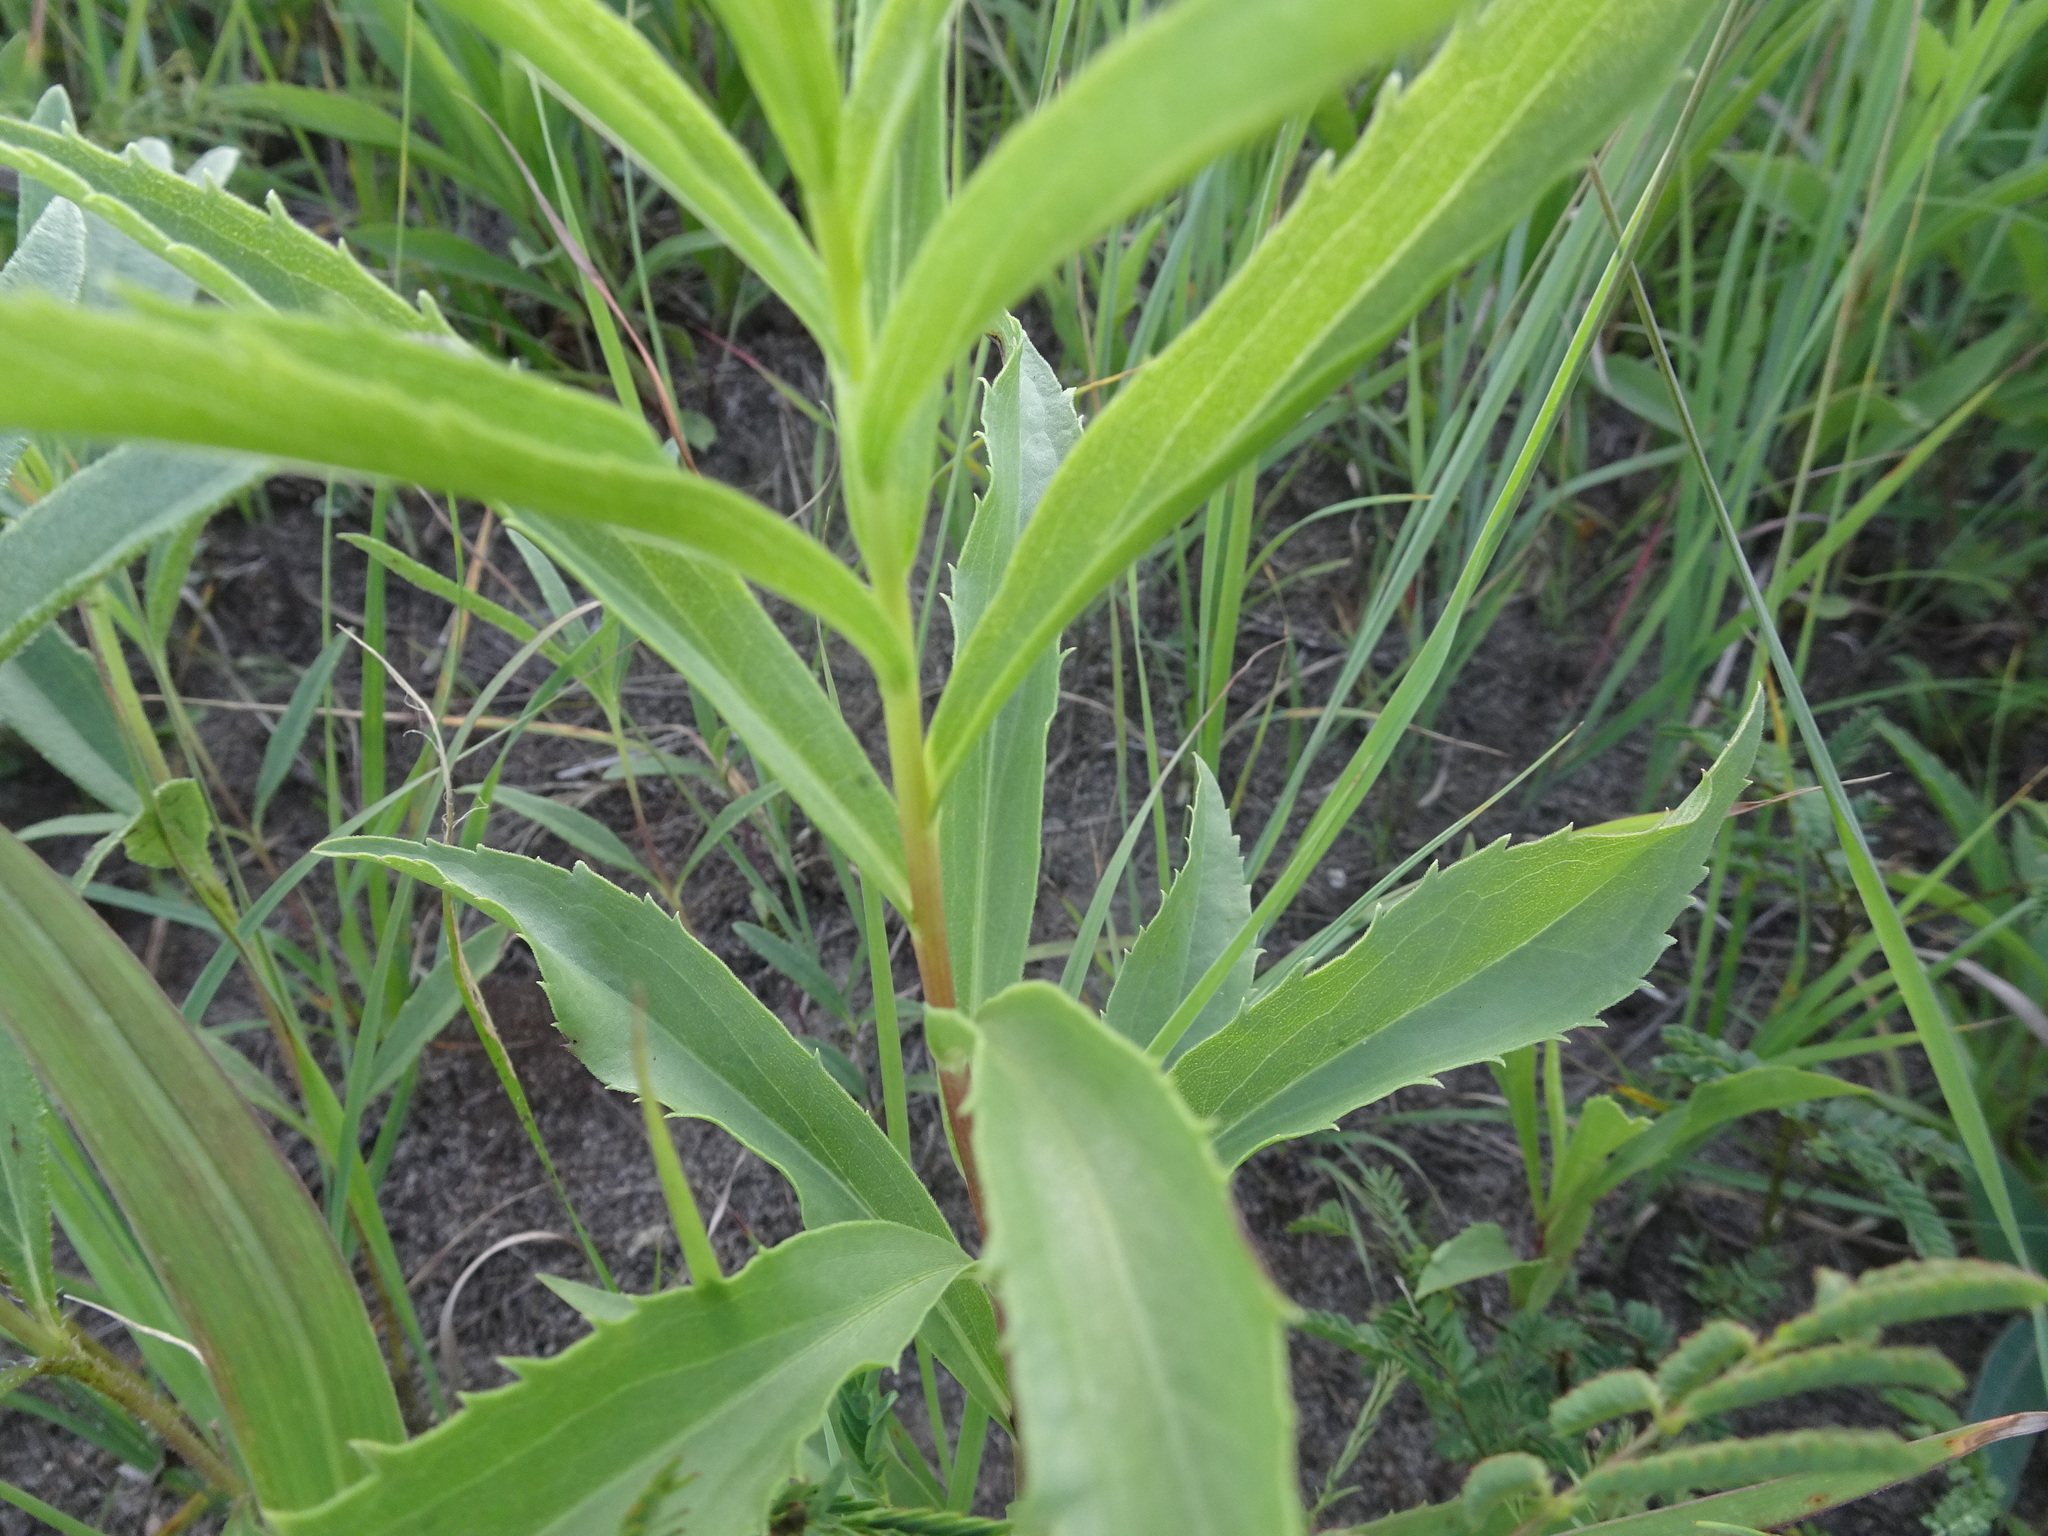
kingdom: Plantae
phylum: Tracheophyta
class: Magnoliopsida
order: Asterales
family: Asteraceae
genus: Solidago
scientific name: Solidago gigantea
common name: Giant goldenrod
